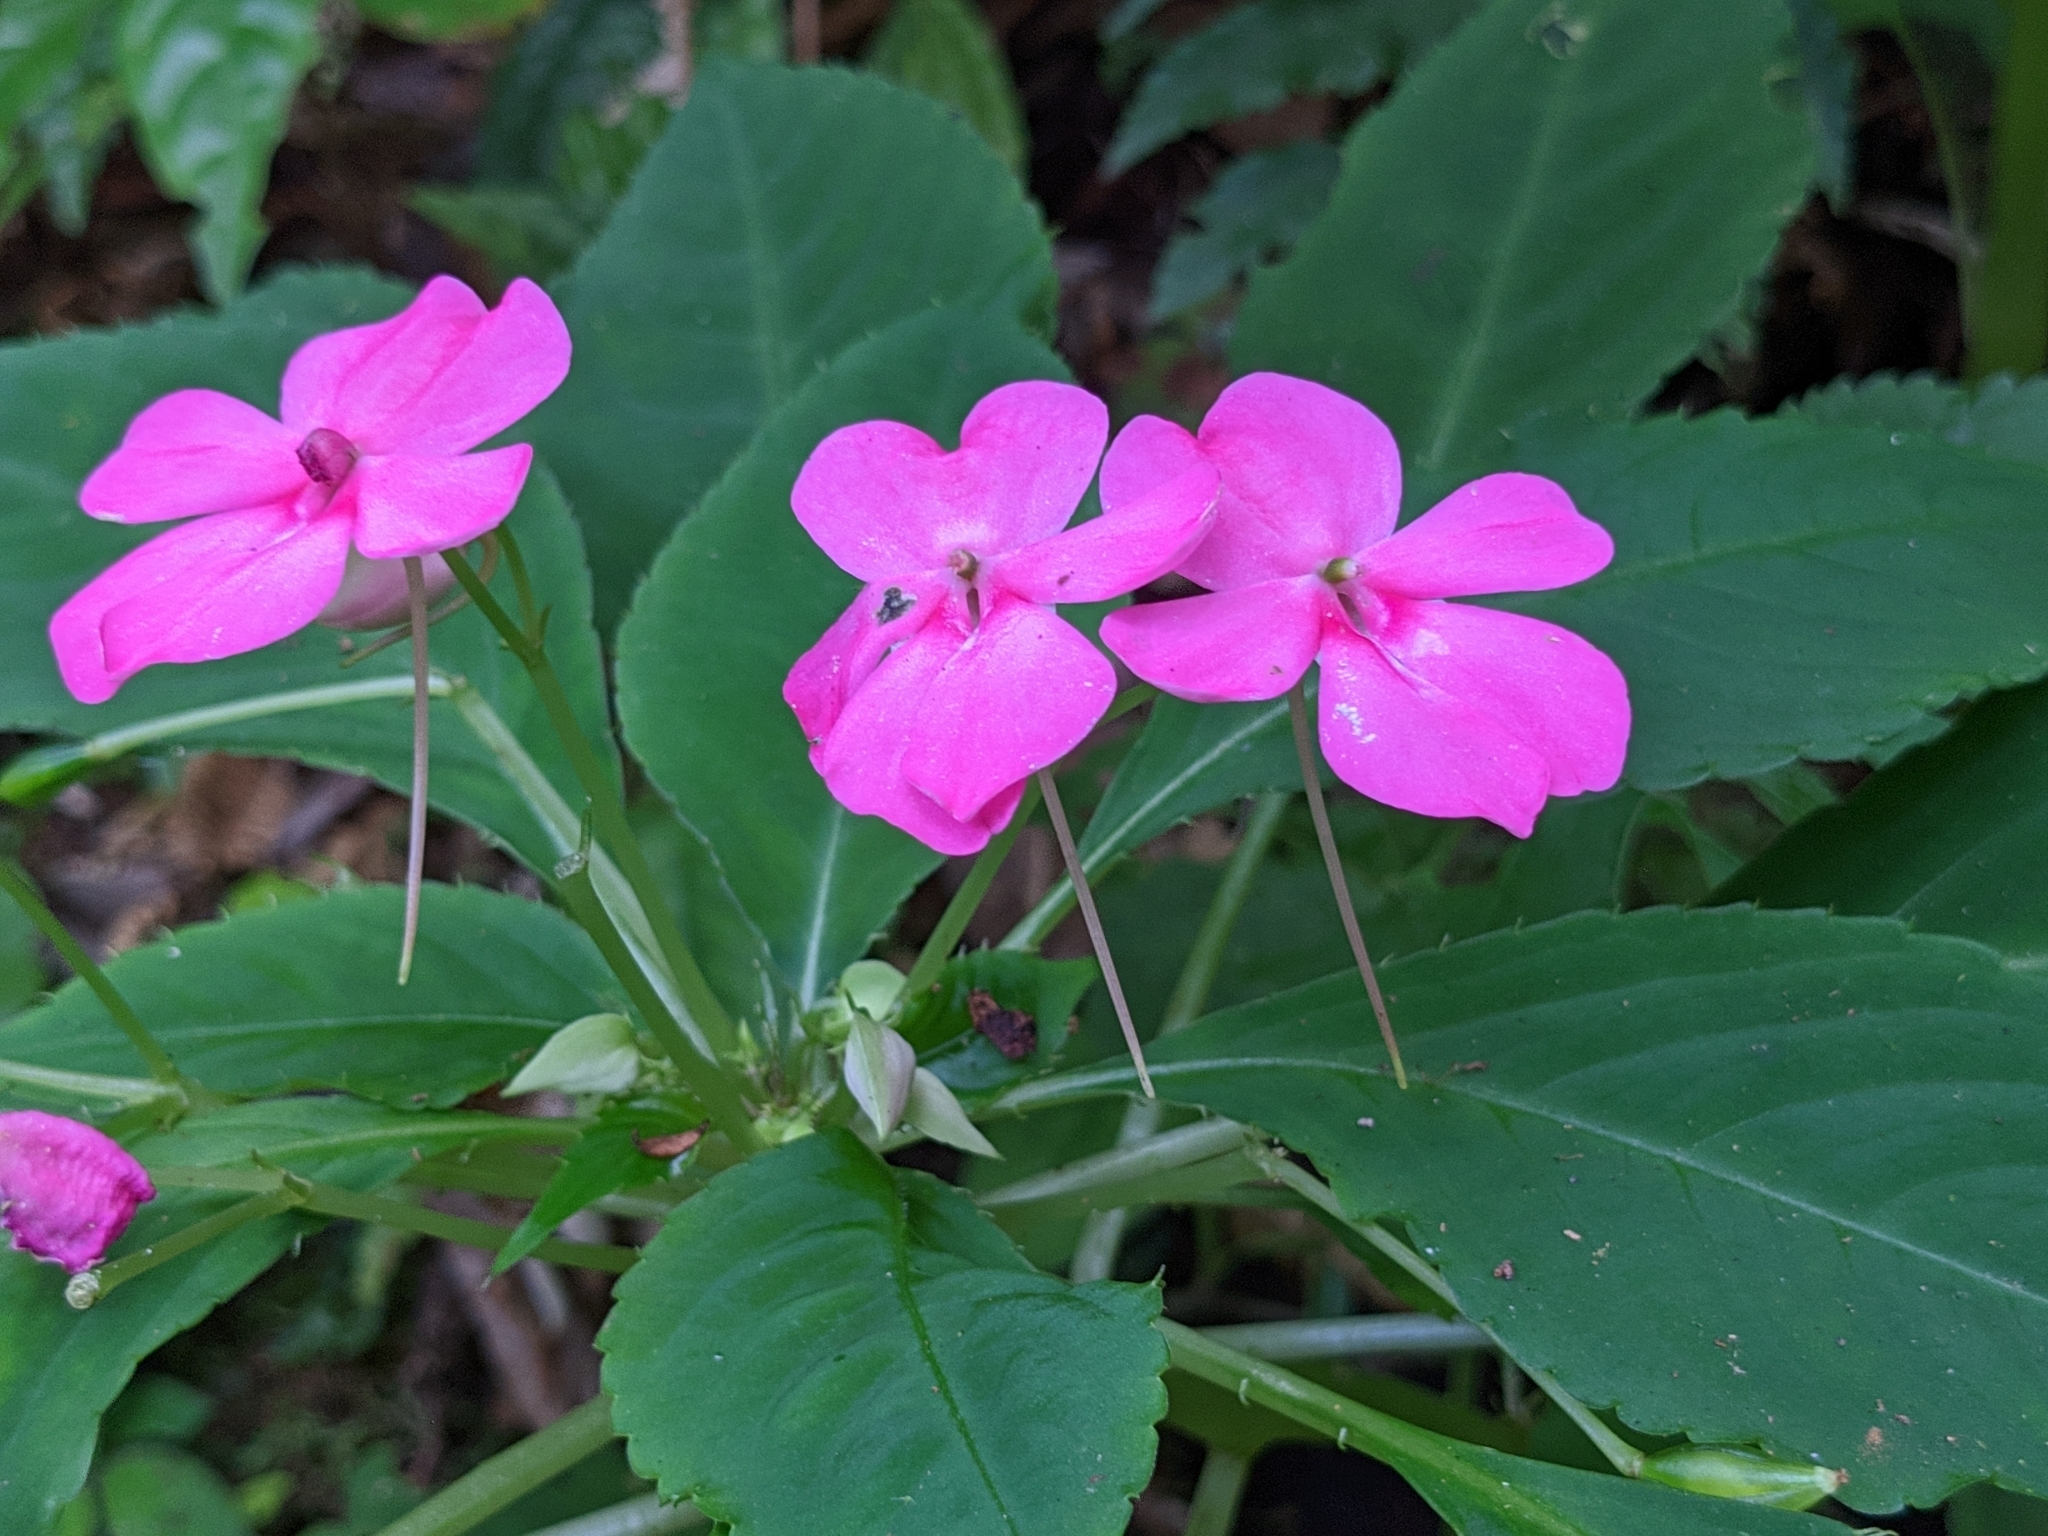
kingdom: Plantae
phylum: Tracheophyta
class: Magnoliopsida
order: Ericales
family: Balsaminaceae
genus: Impatiens
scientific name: Impatiens walleriana
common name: Buzzy lizzy
